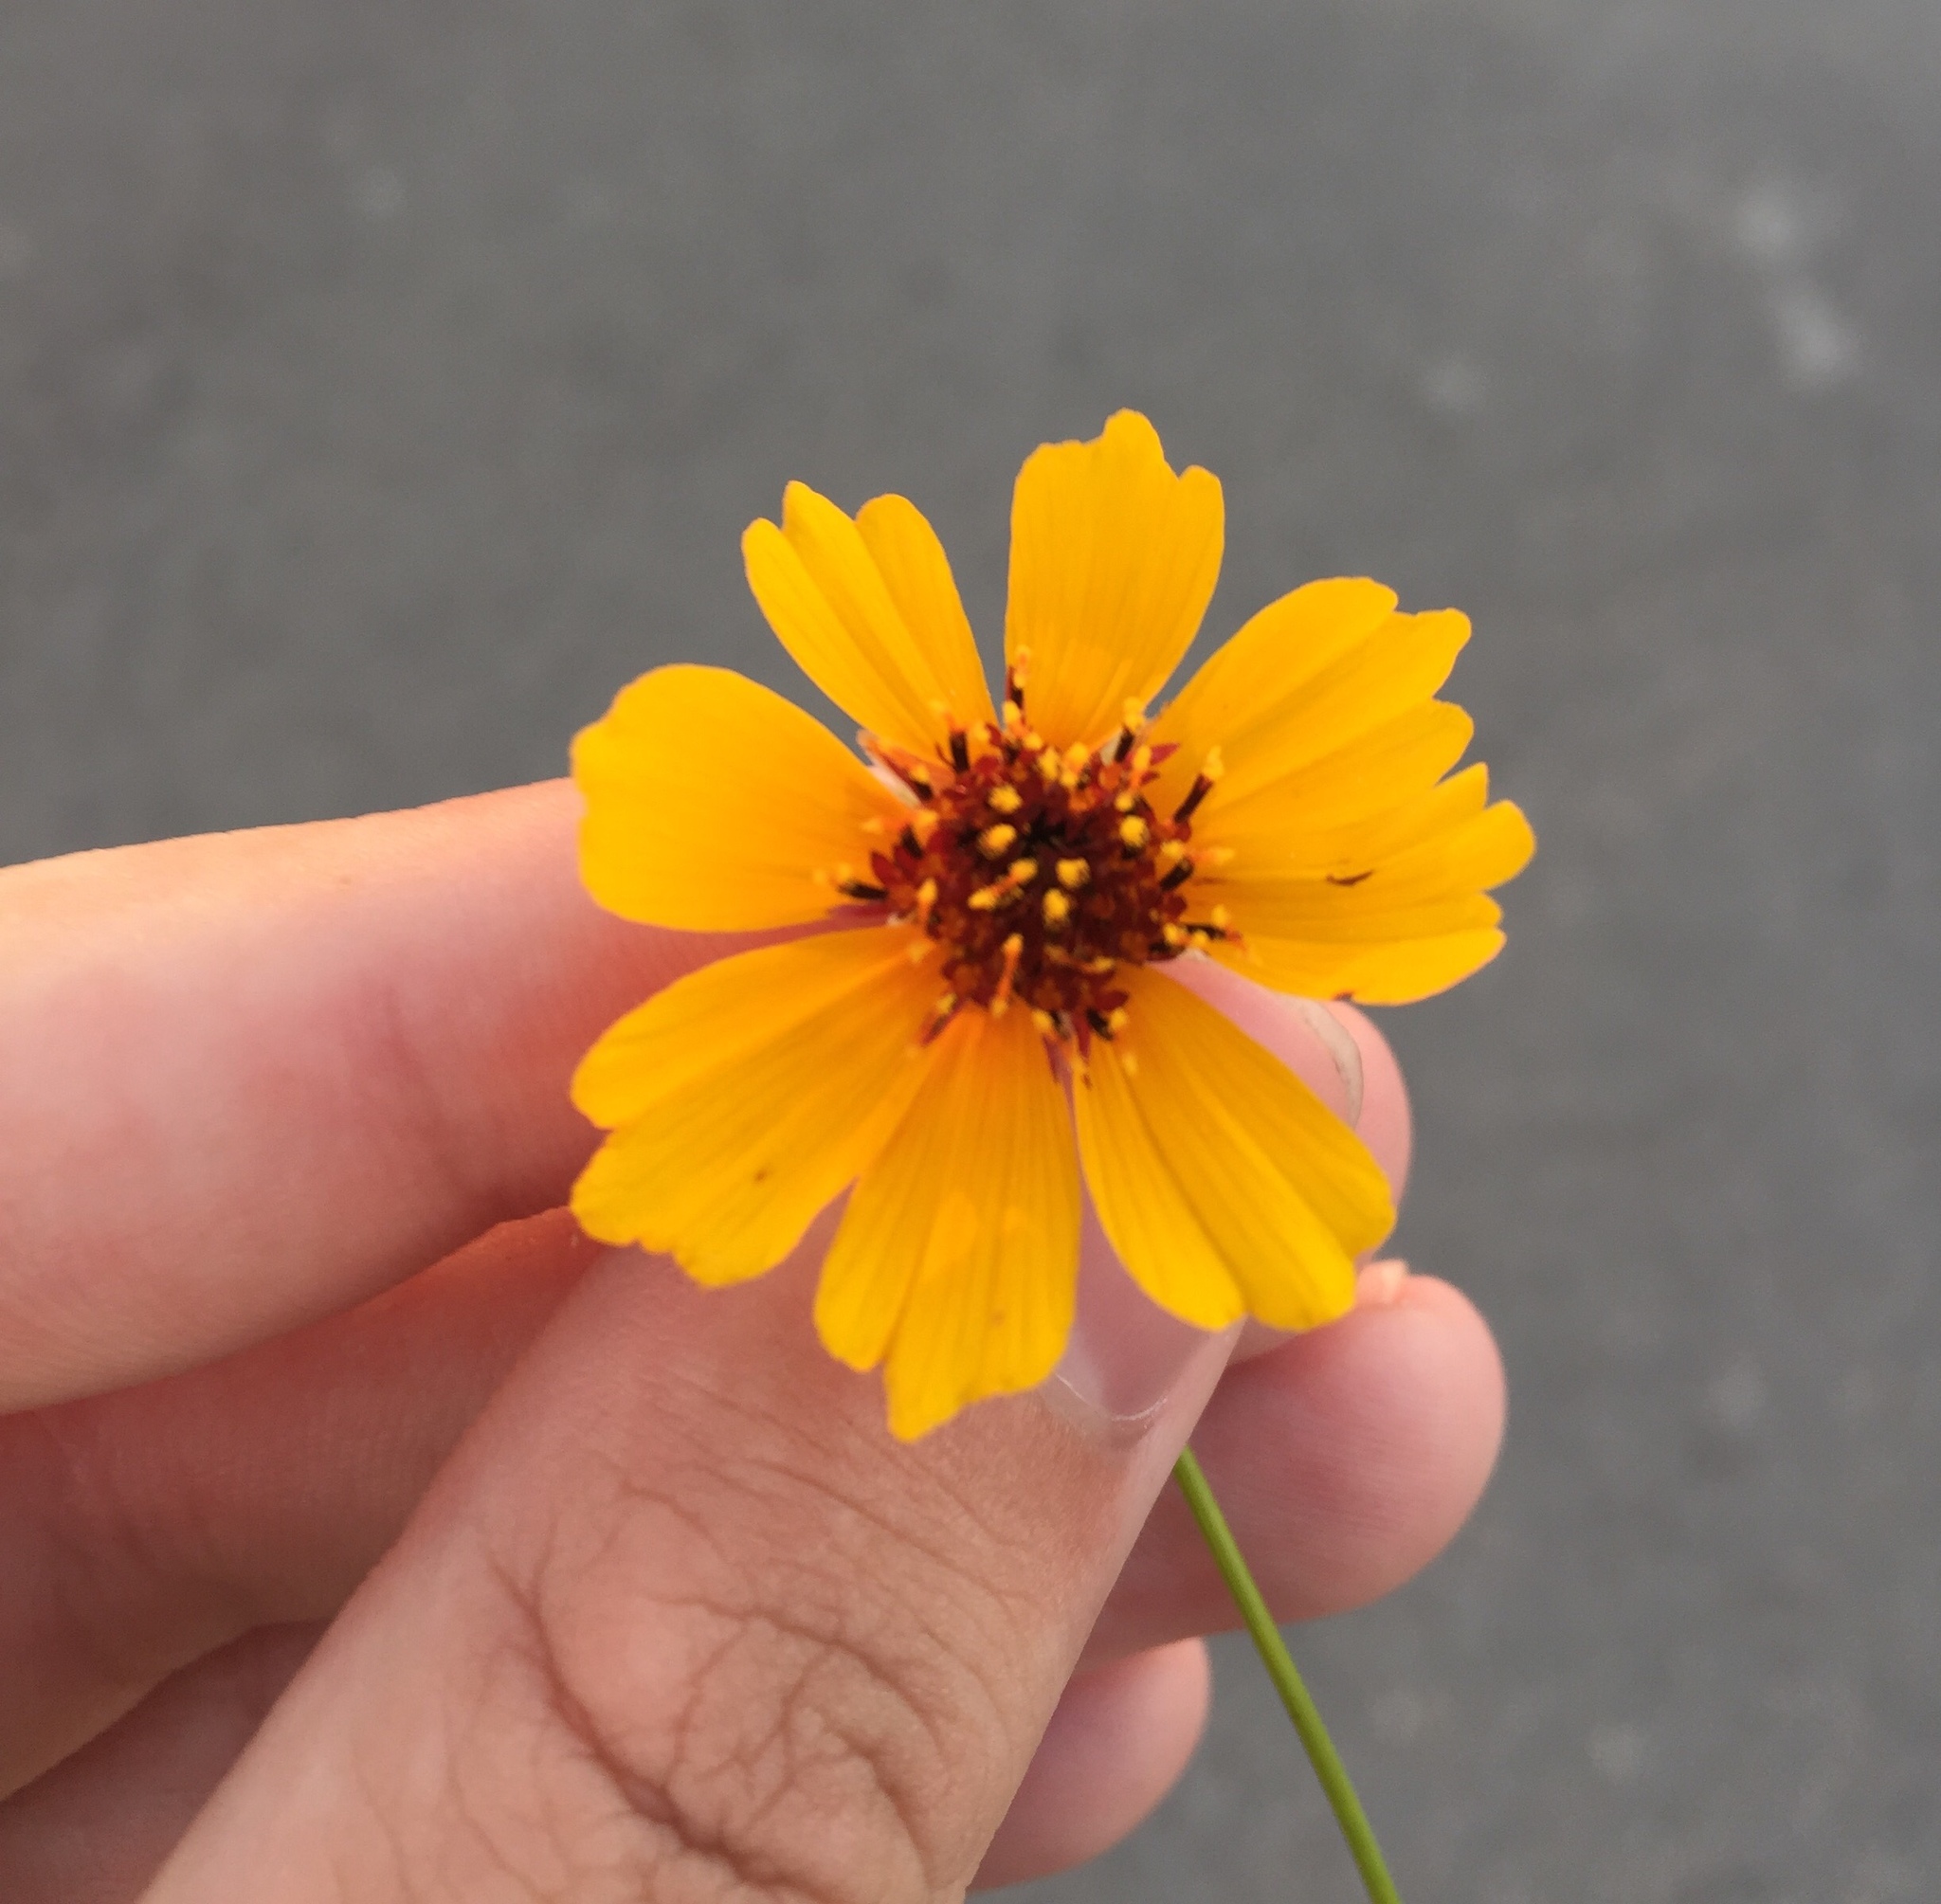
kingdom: Plantae
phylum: Tracheophyta
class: Magnoliopsida
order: Asterales
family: Asteraceae
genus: Thelesperma
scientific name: Thelesperma filifolium
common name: Stiff greenthread
